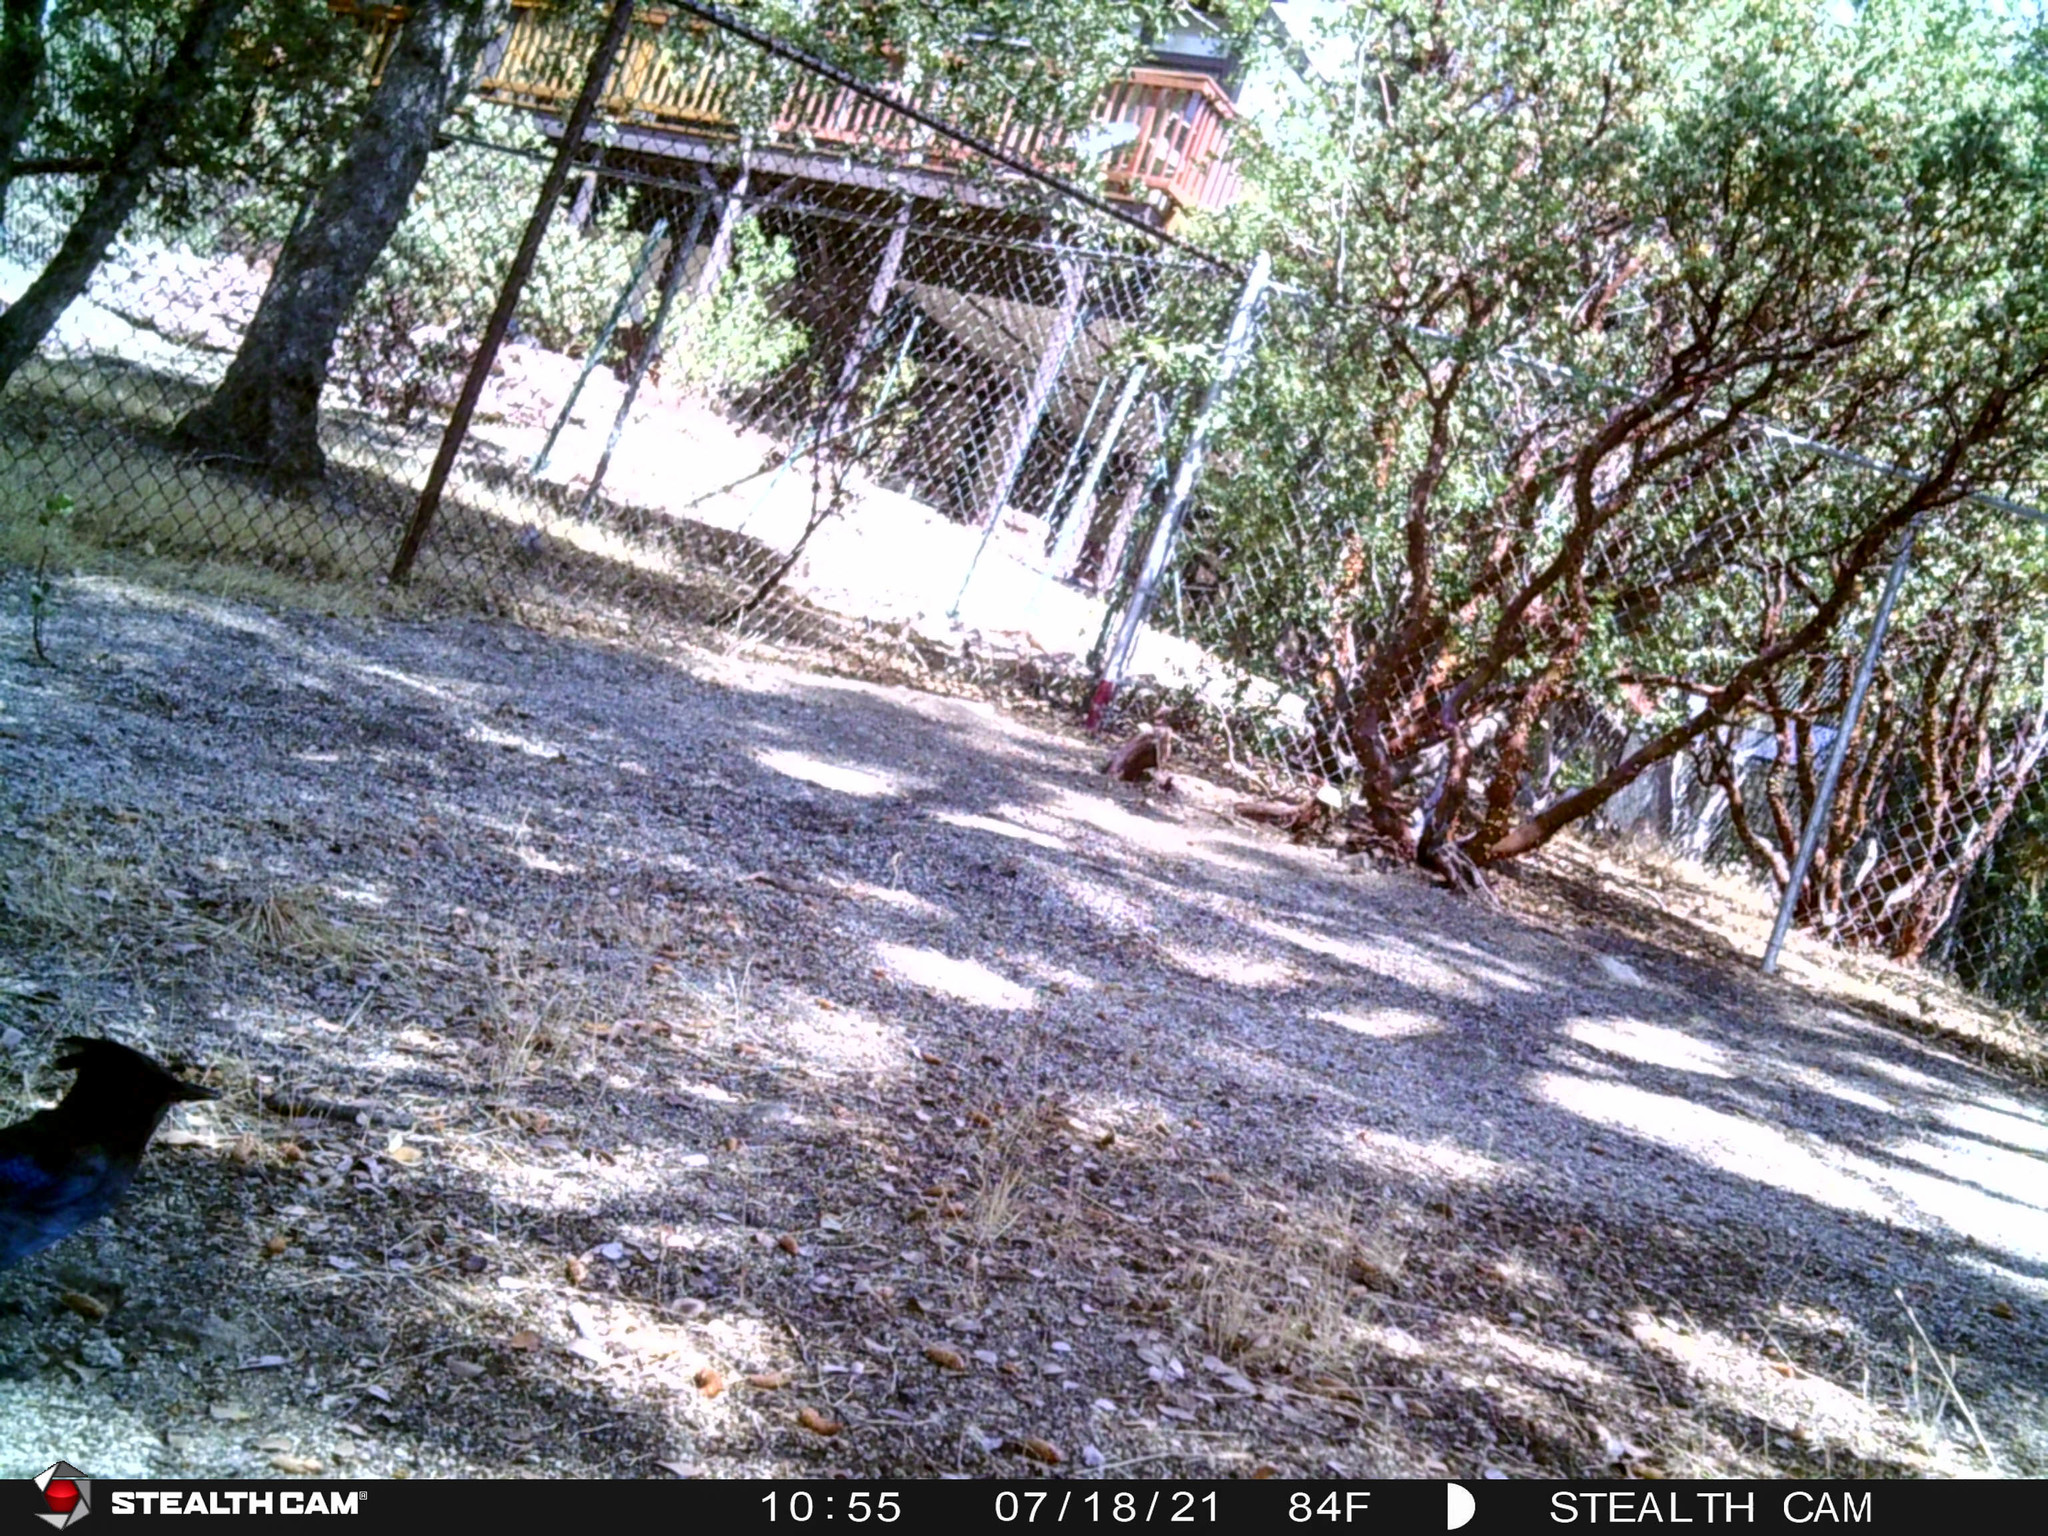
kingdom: Animalia
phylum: Chordata
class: Aves
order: Passeriformes
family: Corvidae
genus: Cyanocitta
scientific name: Cyanocitta stelleri
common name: Steller's jay
